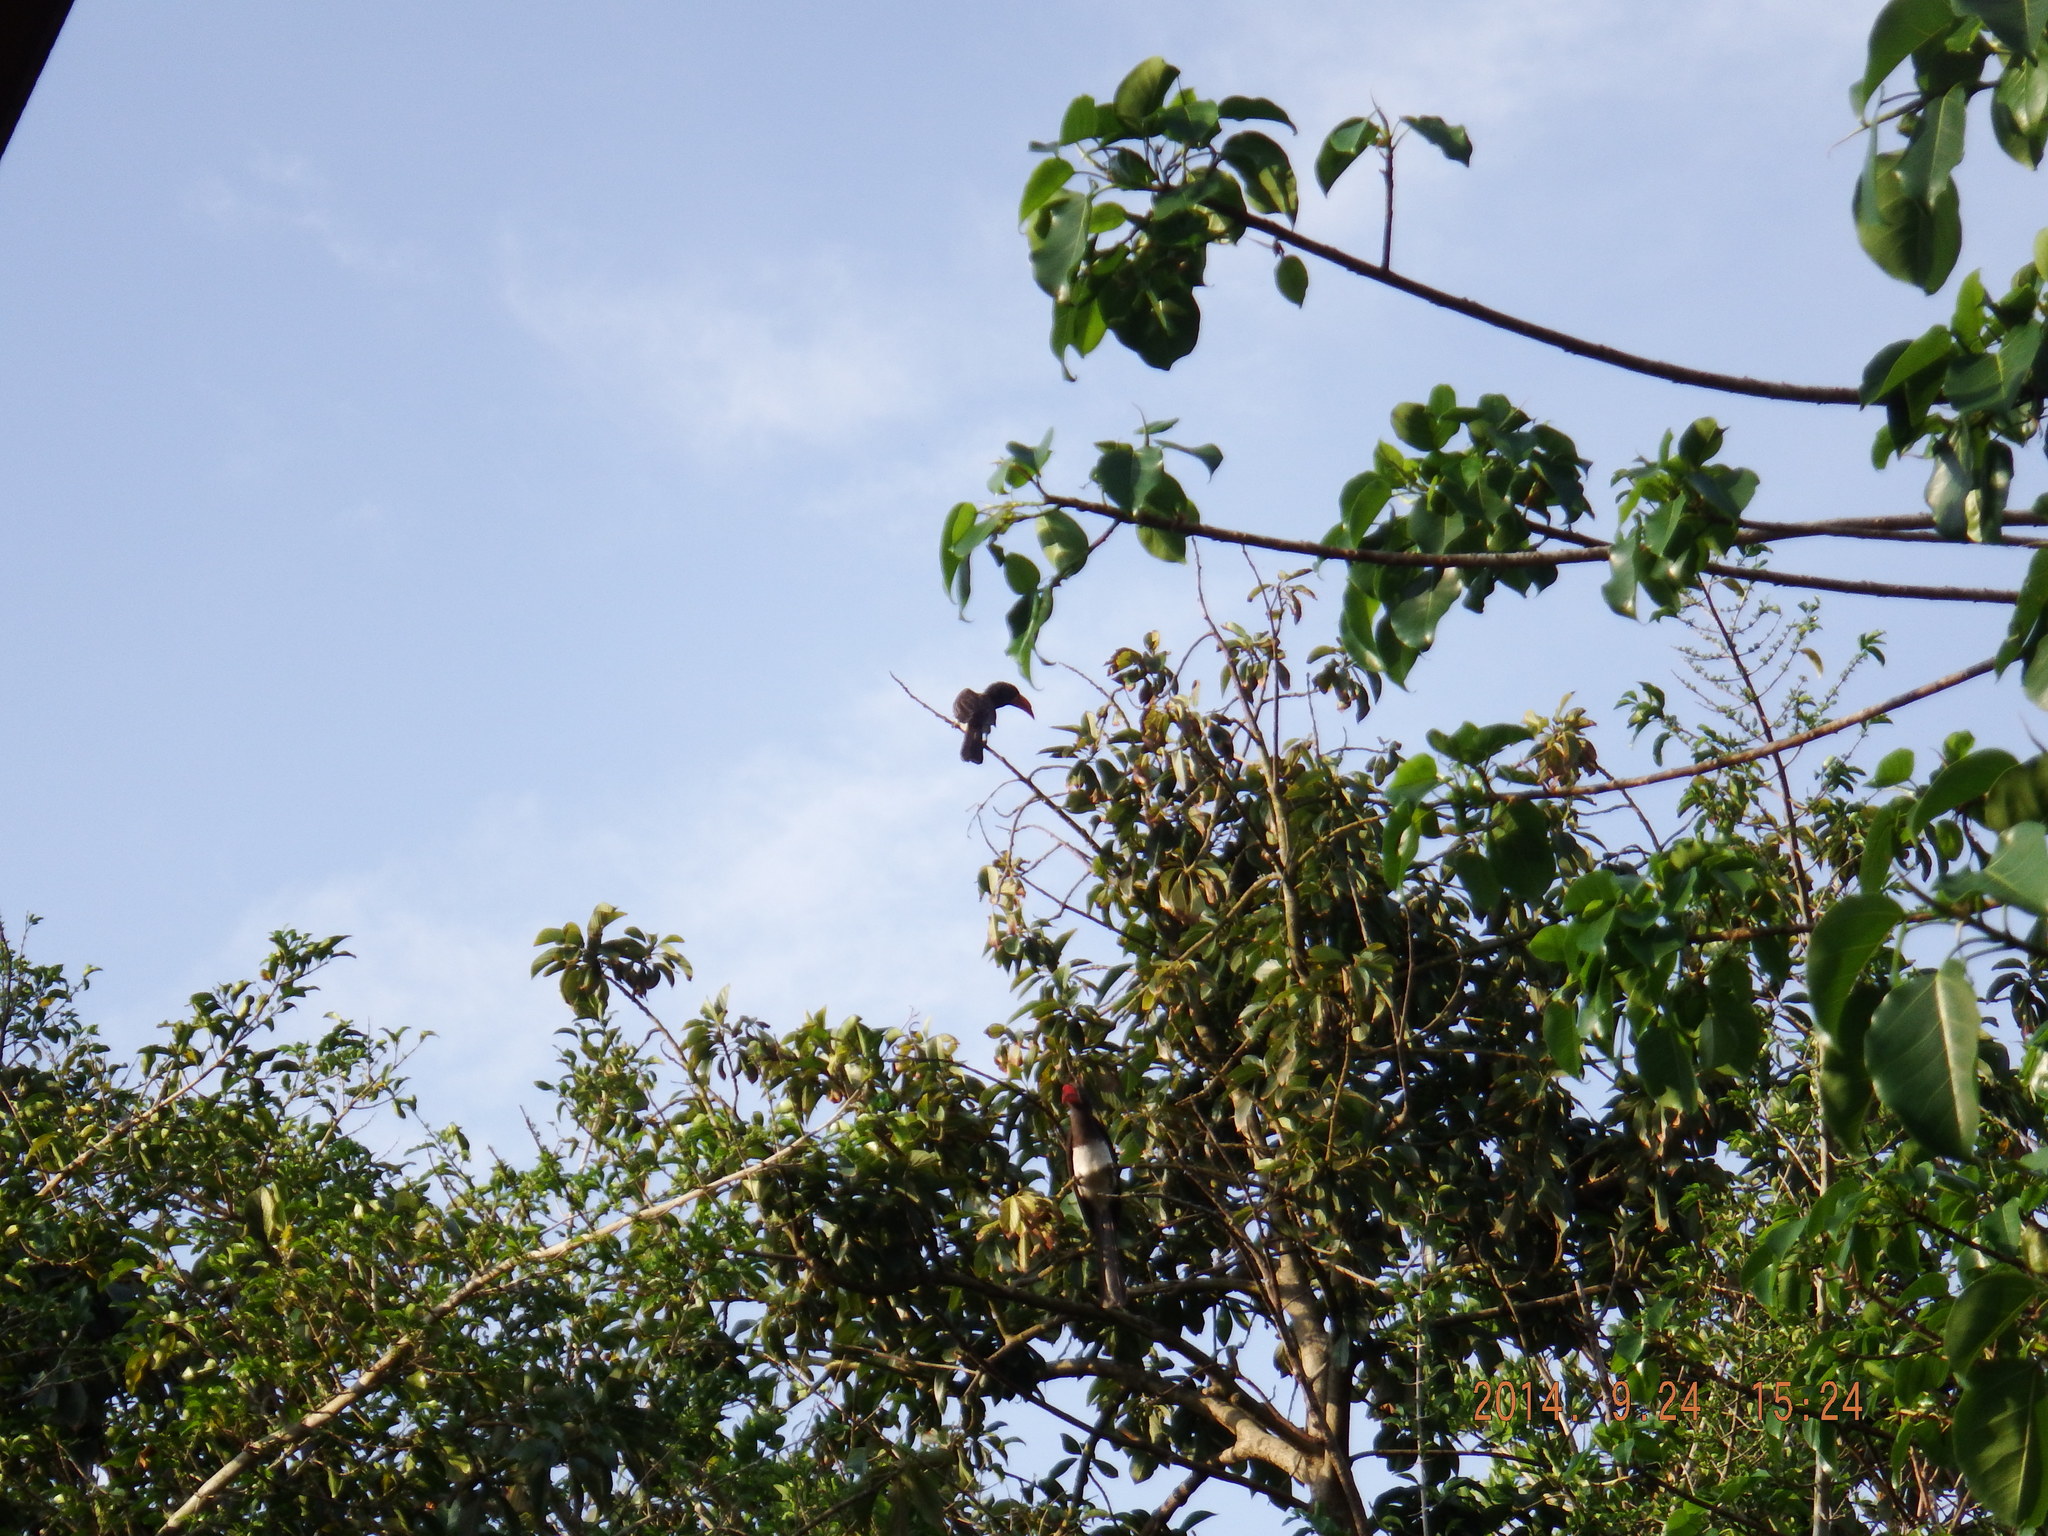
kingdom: Animalia
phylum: Chordata
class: Aves
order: Bucerotiformes
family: Bucerotidae
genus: Lophoceros
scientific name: Lophoceros alboterminatus
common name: Crowned hornbill
